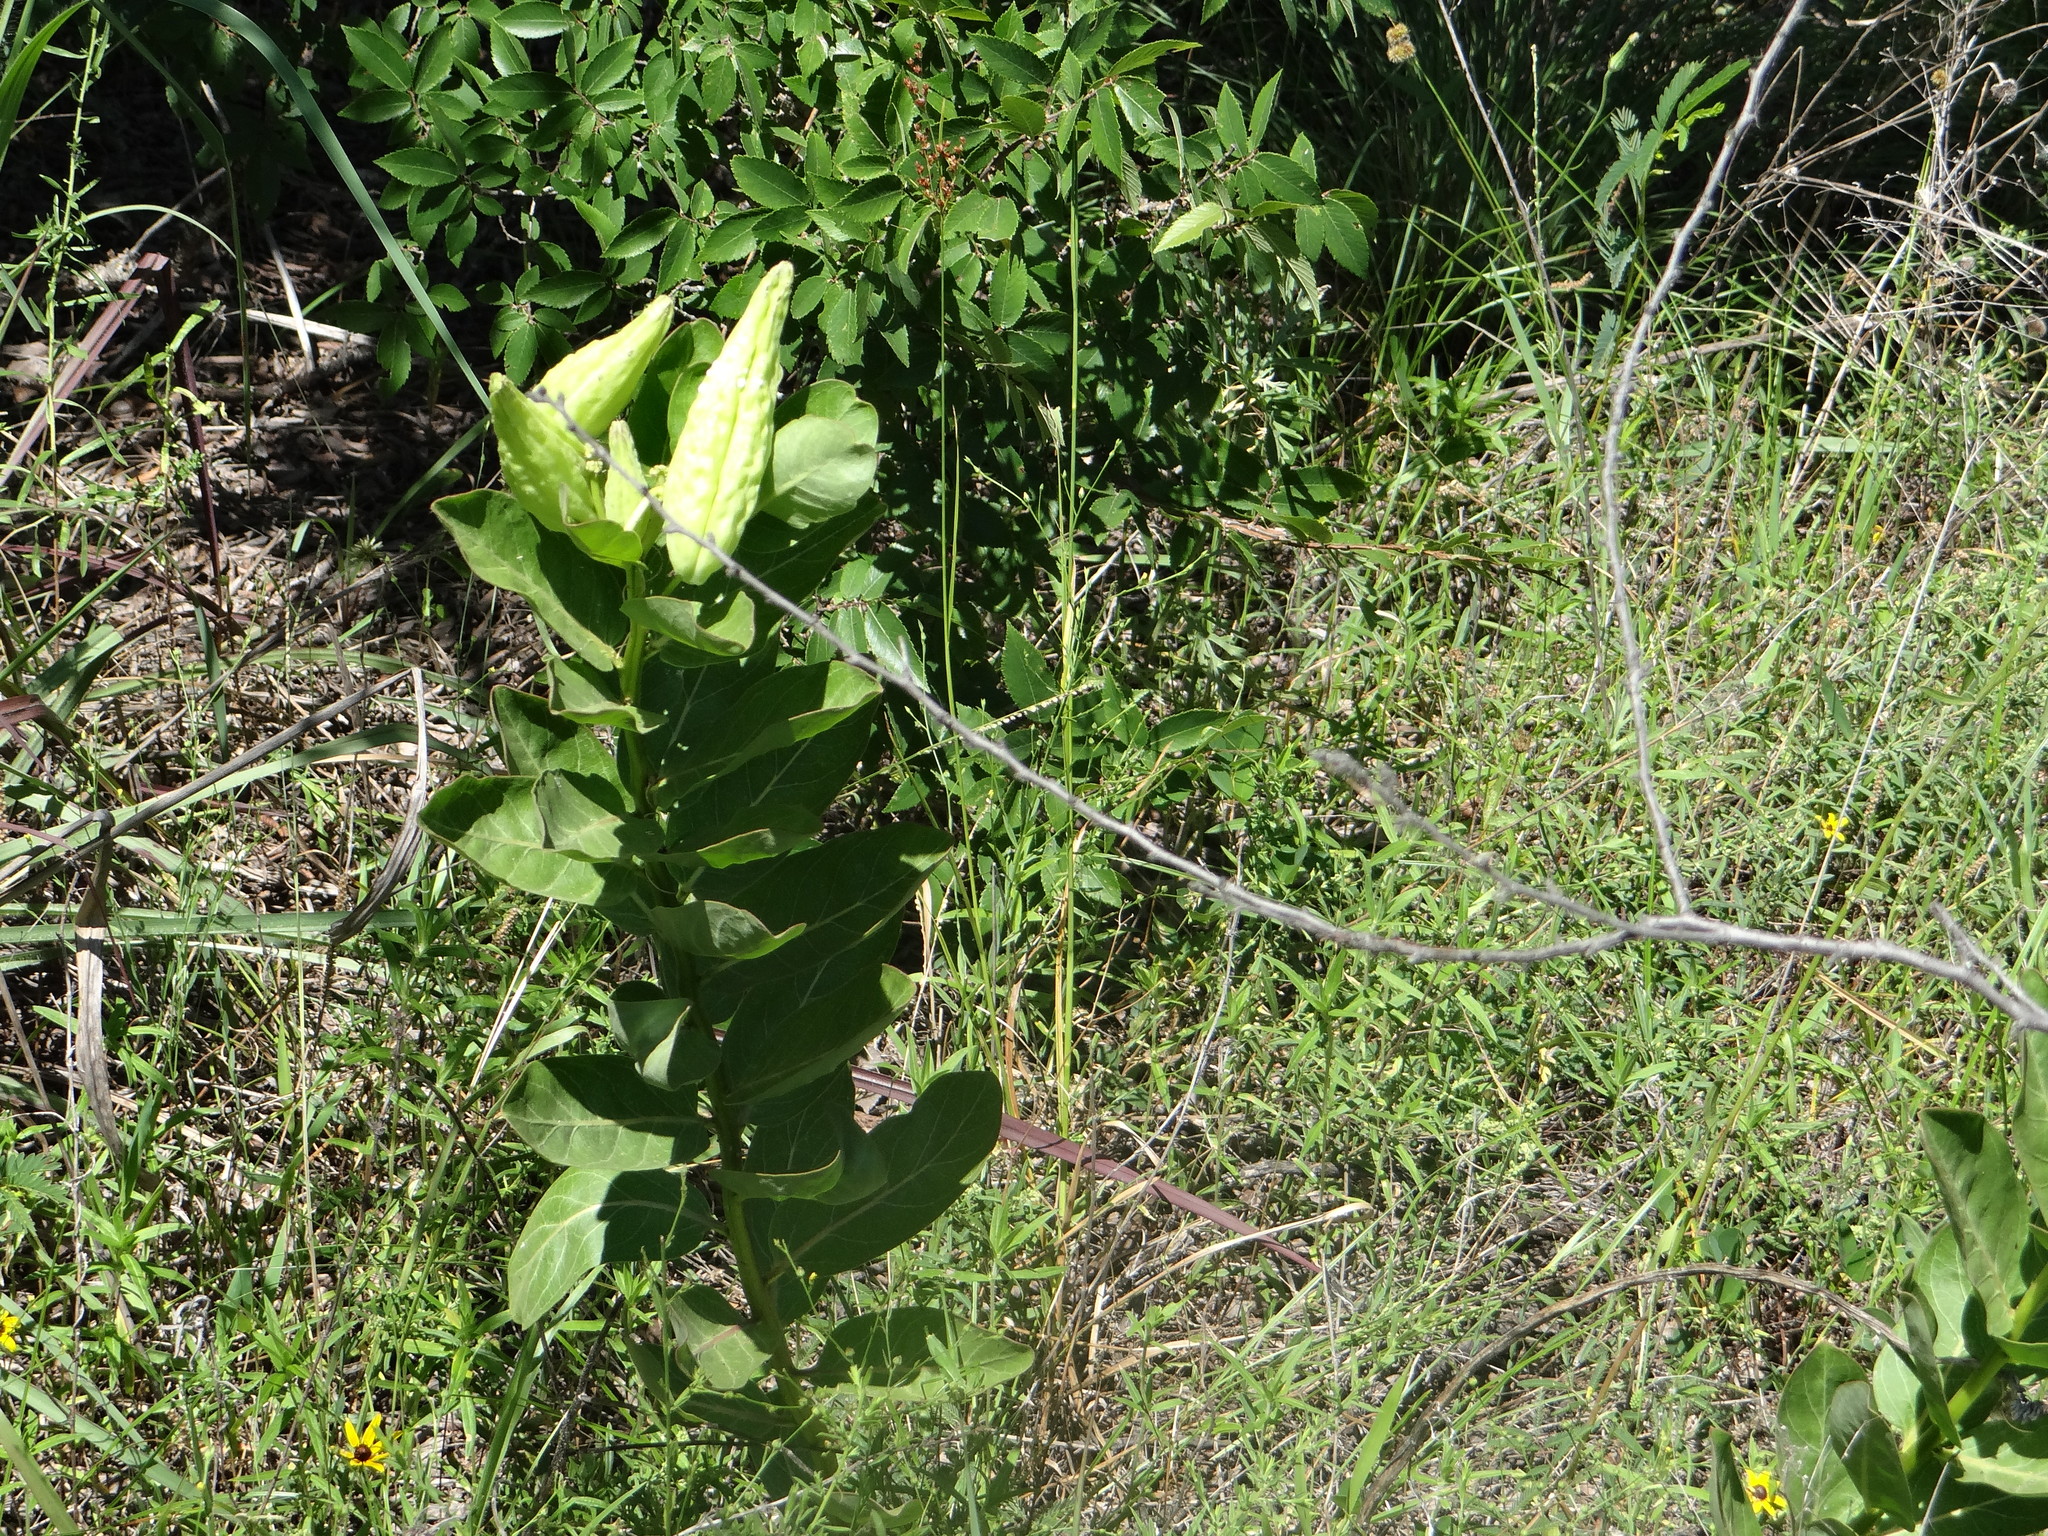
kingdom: Plantae
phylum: Tracheophyta
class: Magnoliopsida
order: Gentianales
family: Apocynaceae
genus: Asclepias
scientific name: Asclepias viridis
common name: Antelope-horns
